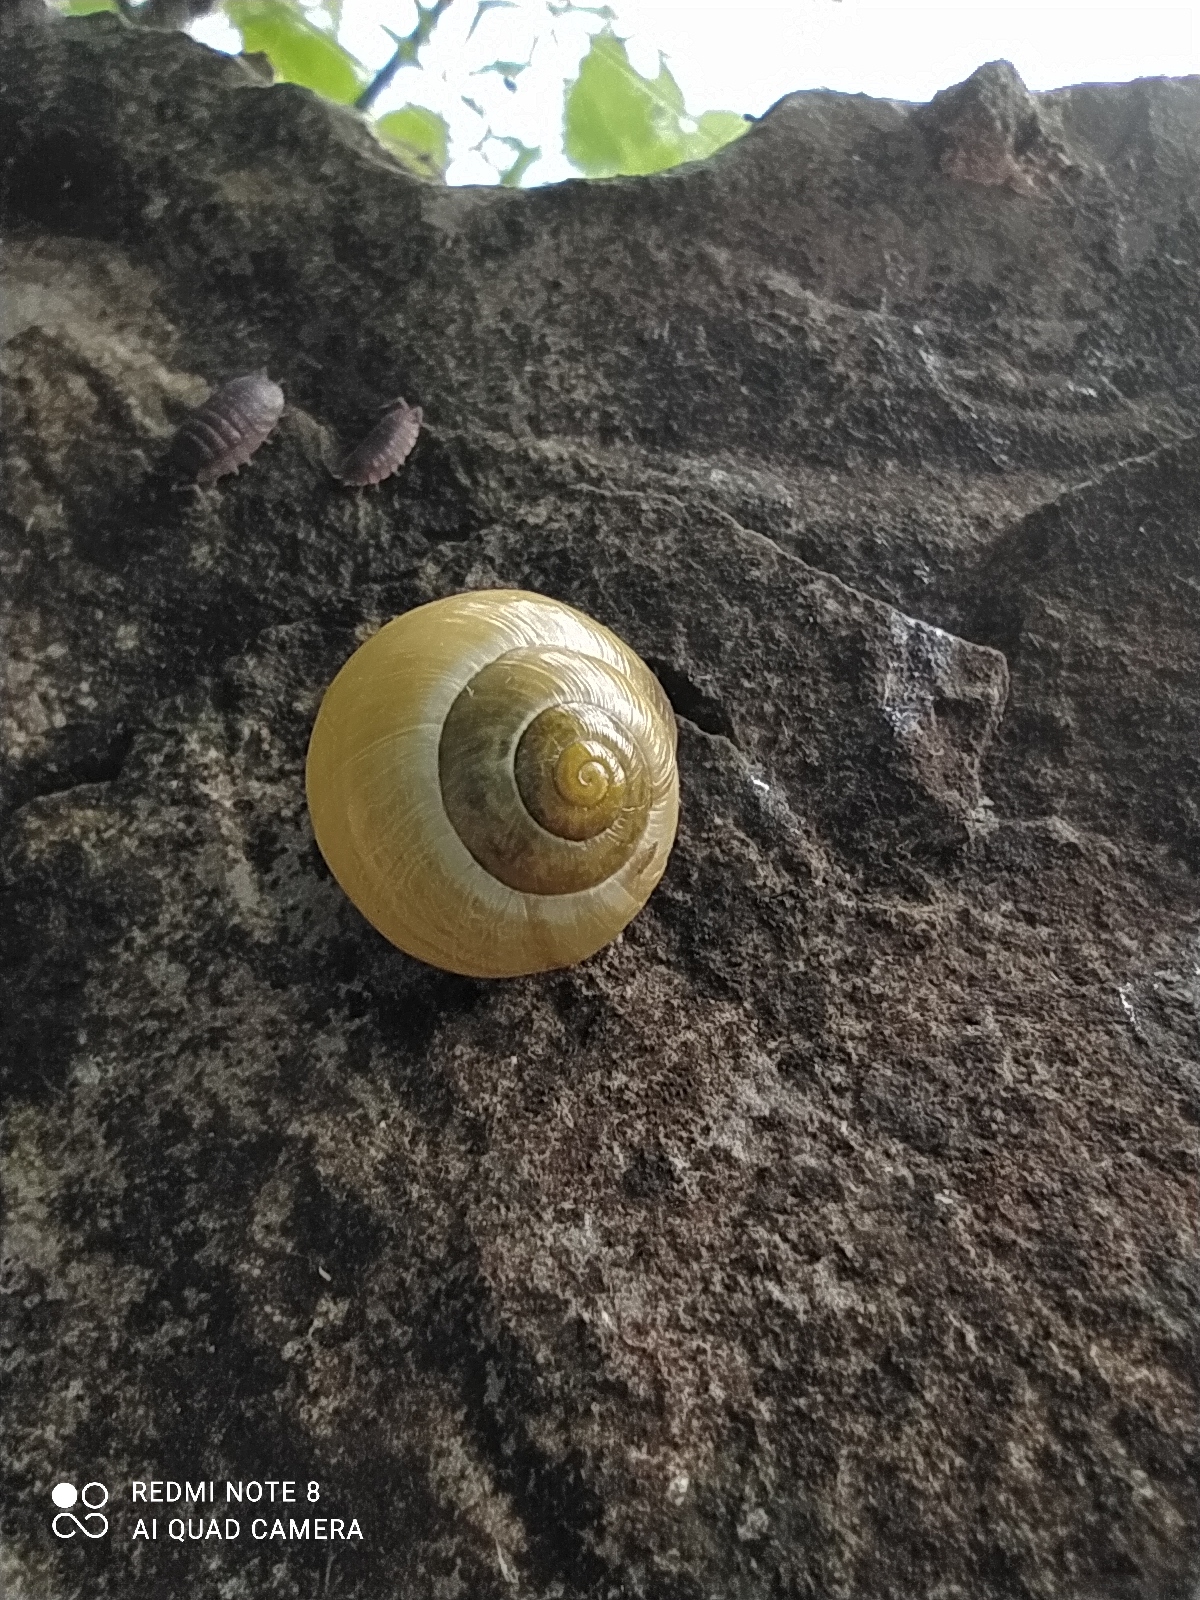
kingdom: Animalia
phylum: Mollusca
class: Gastropoda
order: Stylommatophora
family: Helicidae
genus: Cepaea
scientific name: Cepaea
